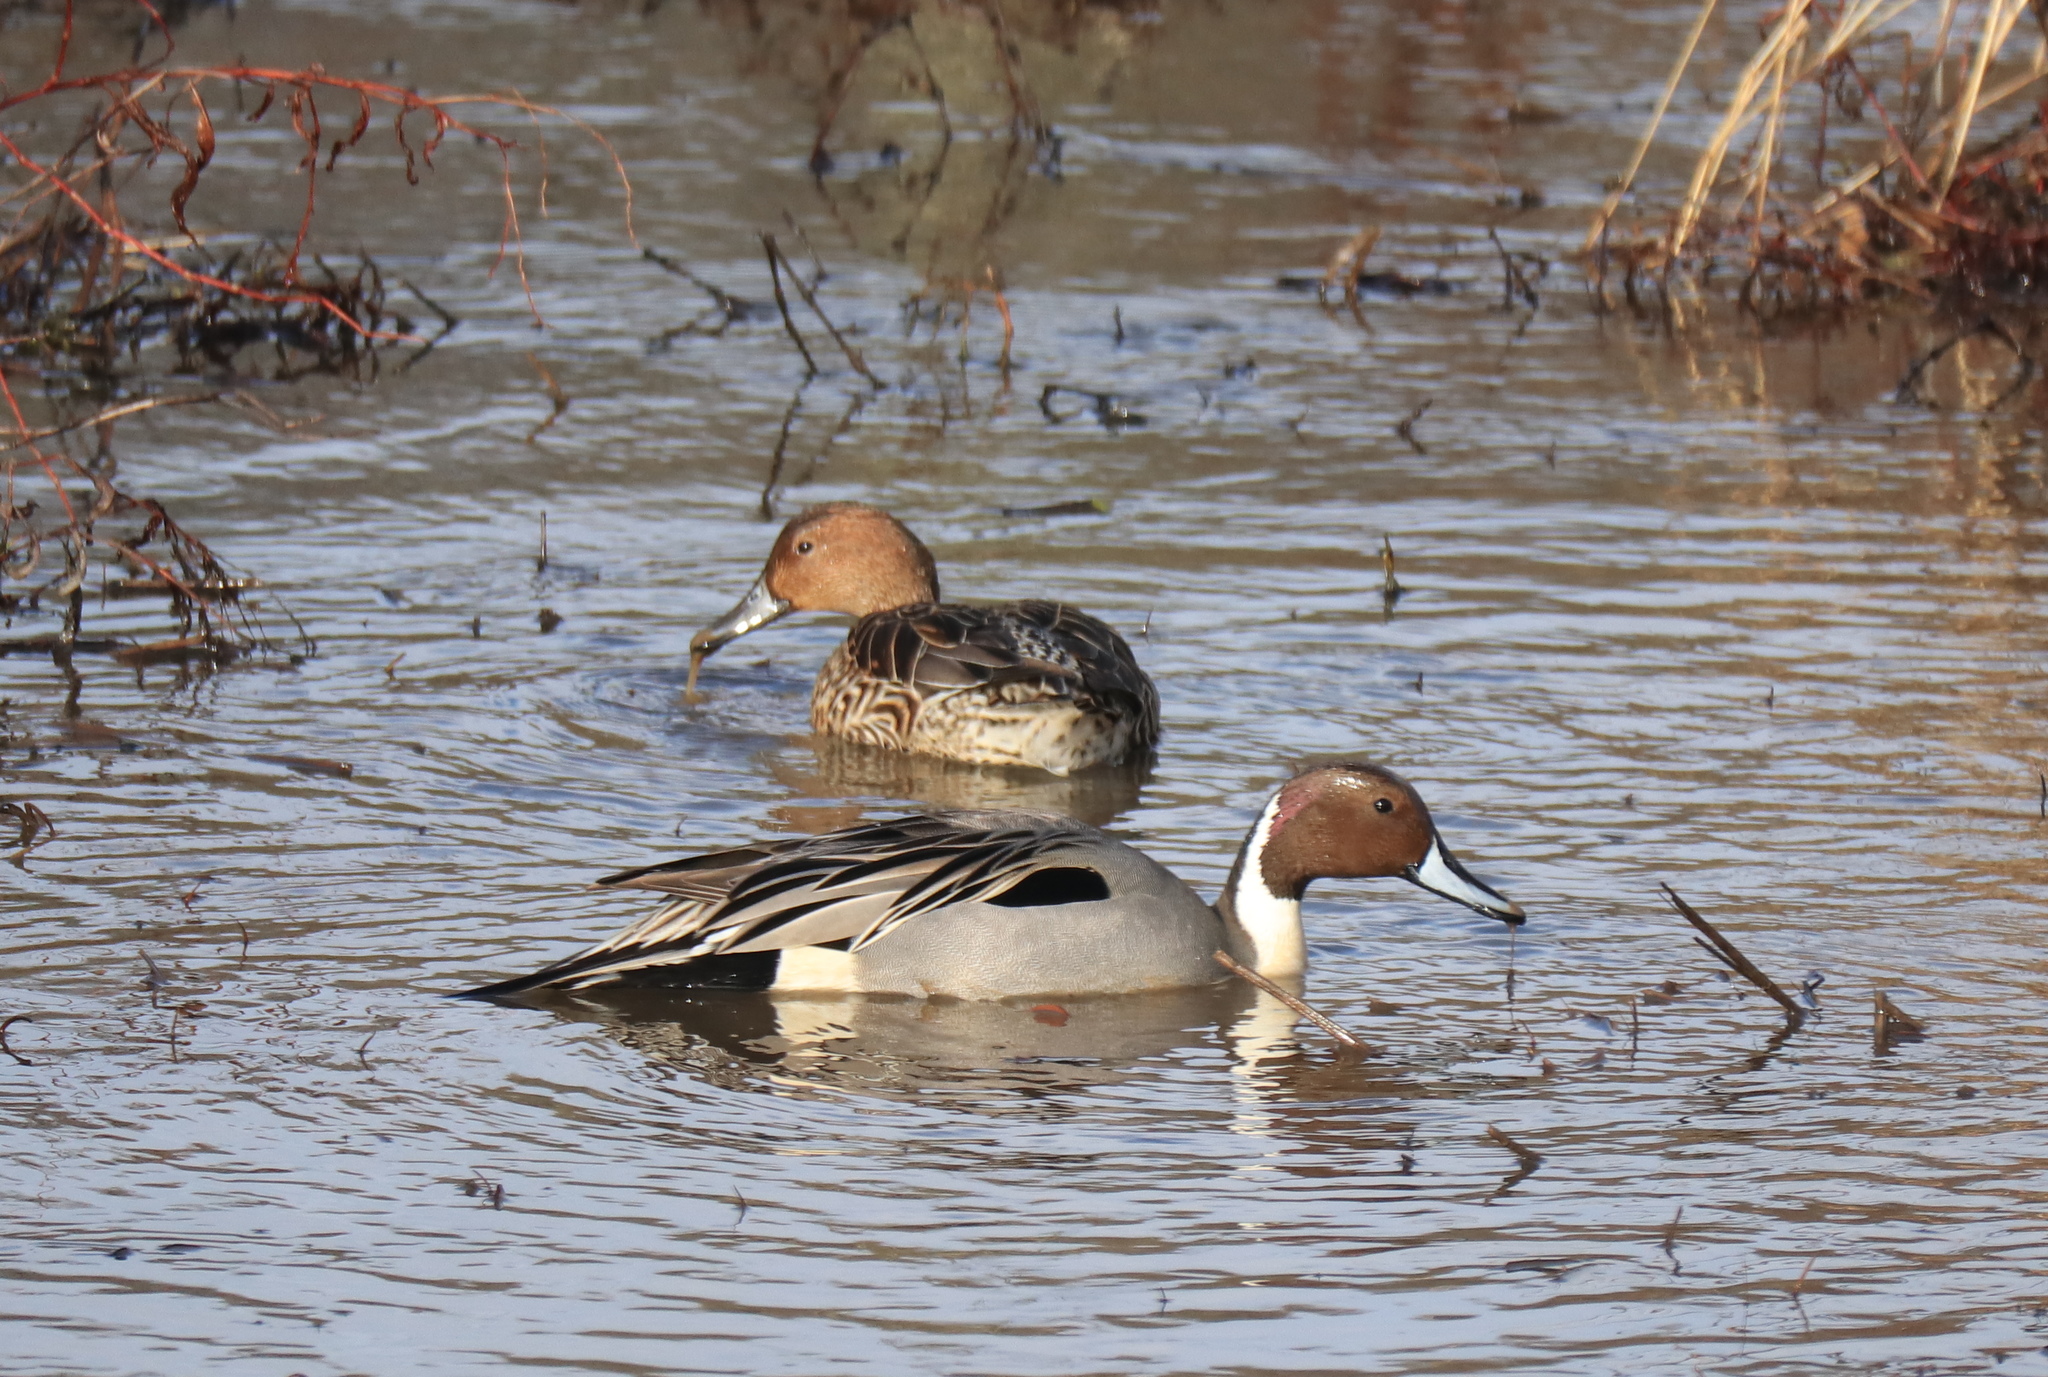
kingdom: Animalia
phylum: Chordata
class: Aves
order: Anseriformes
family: Anatidae
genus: Anas
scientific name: Anas acuta
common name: Northern pintail
